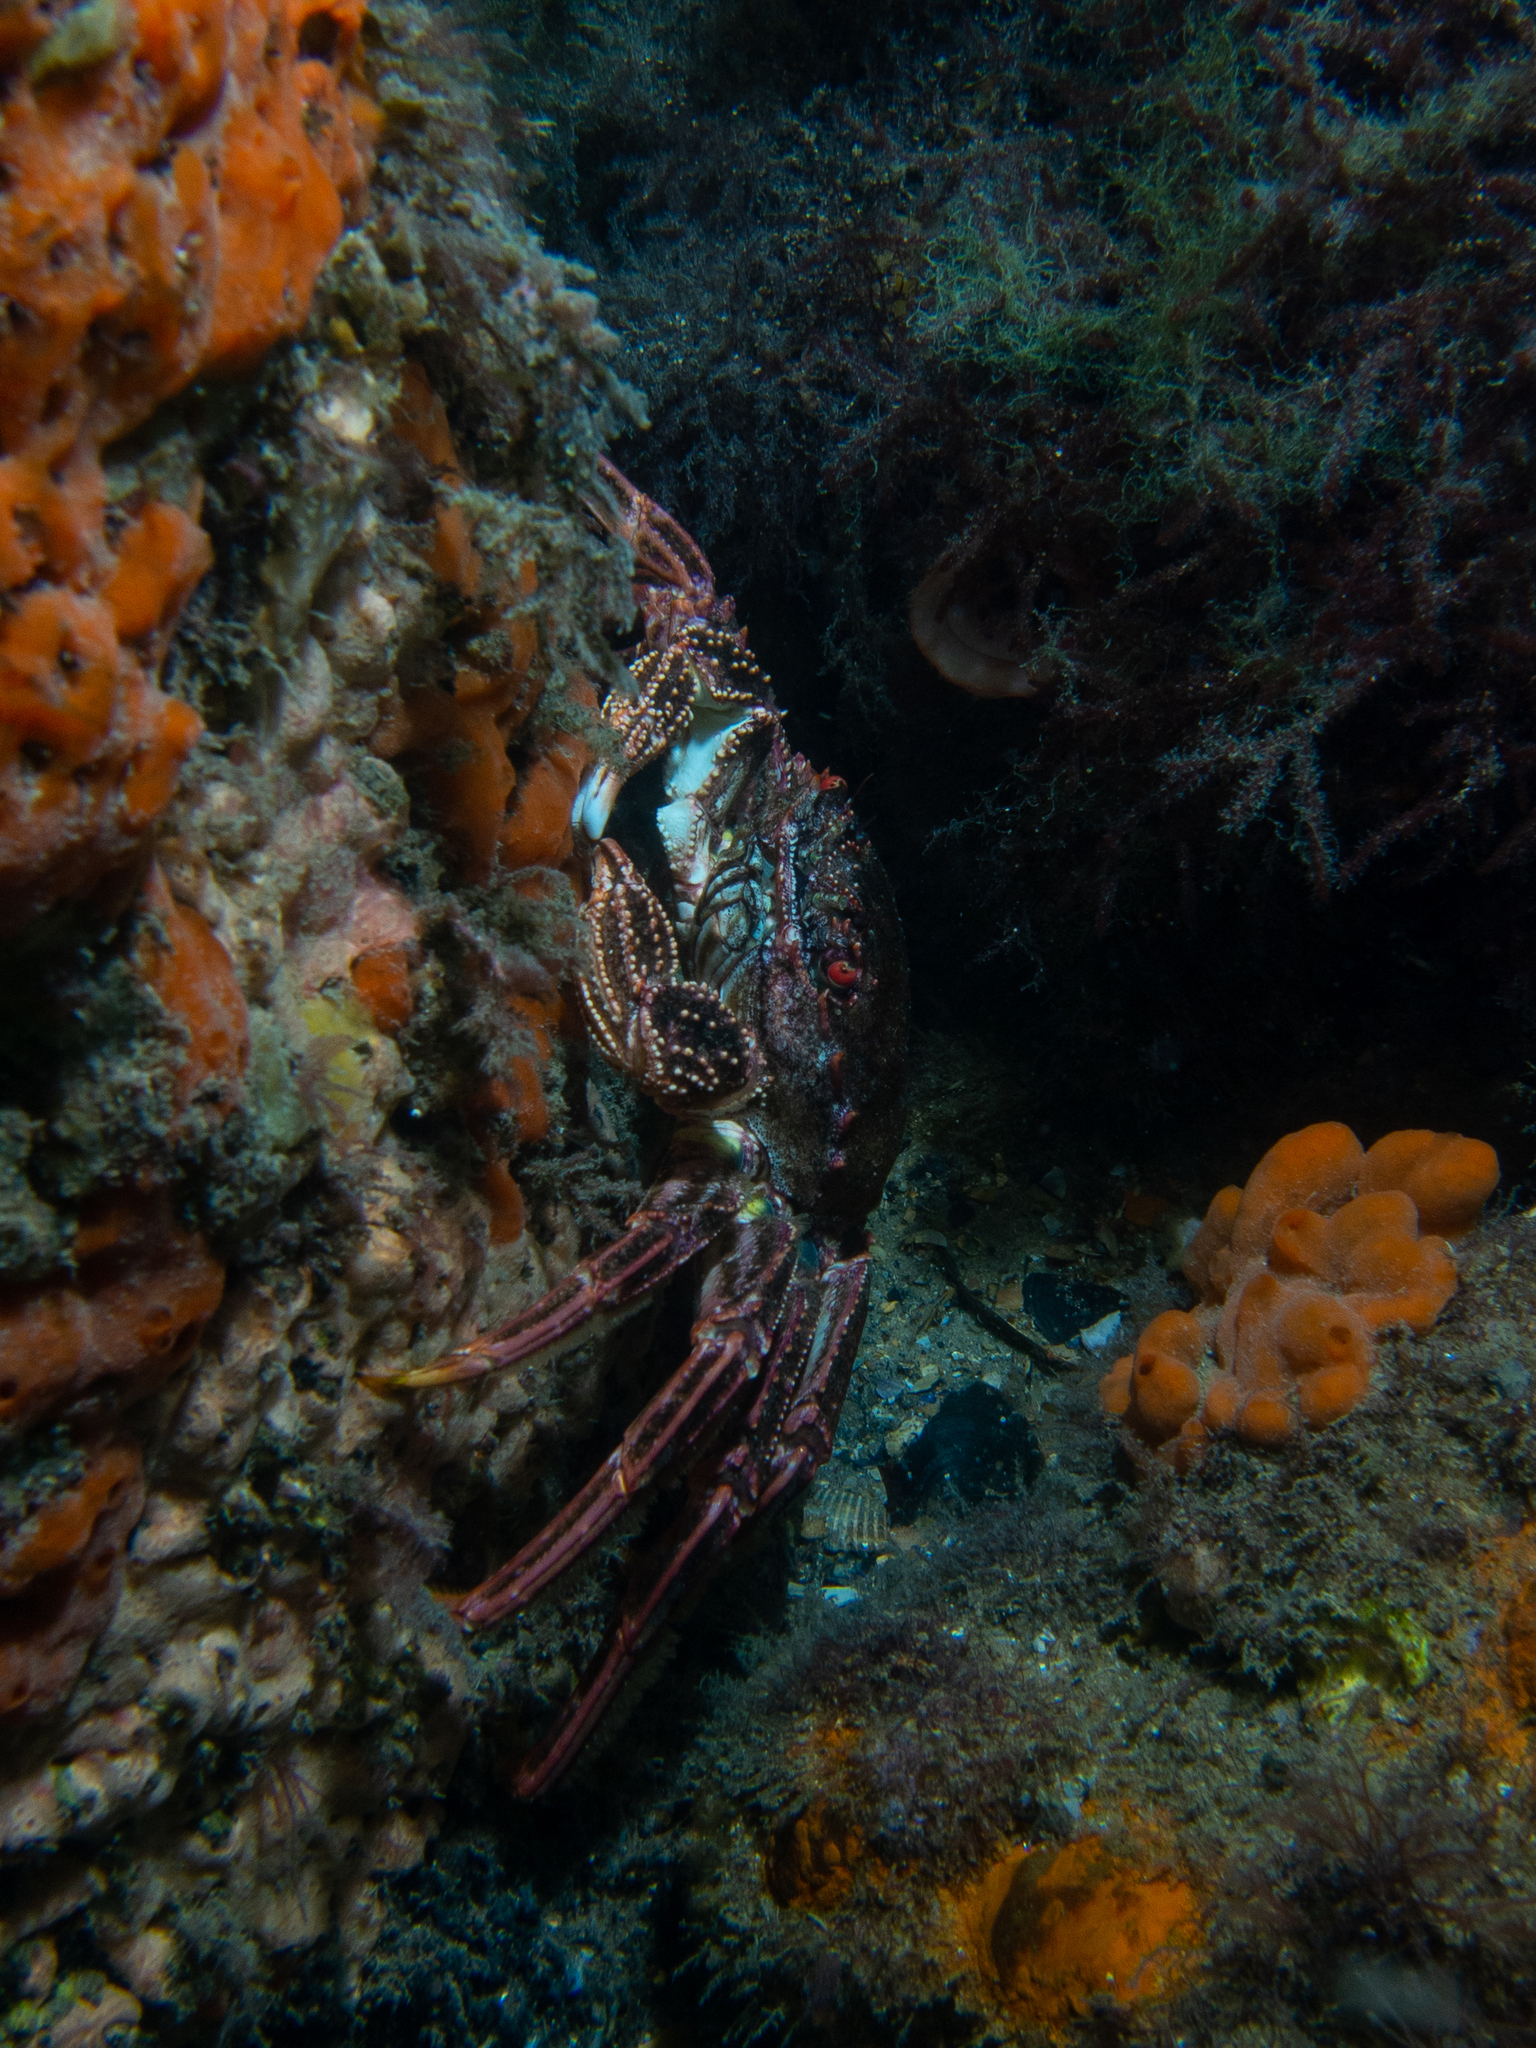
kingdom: Animalia
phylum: Arthropoda
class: Malacostraca
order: Decapoda
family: Plagusiidae
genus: Guinusia
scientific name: Guinusia chabrus
